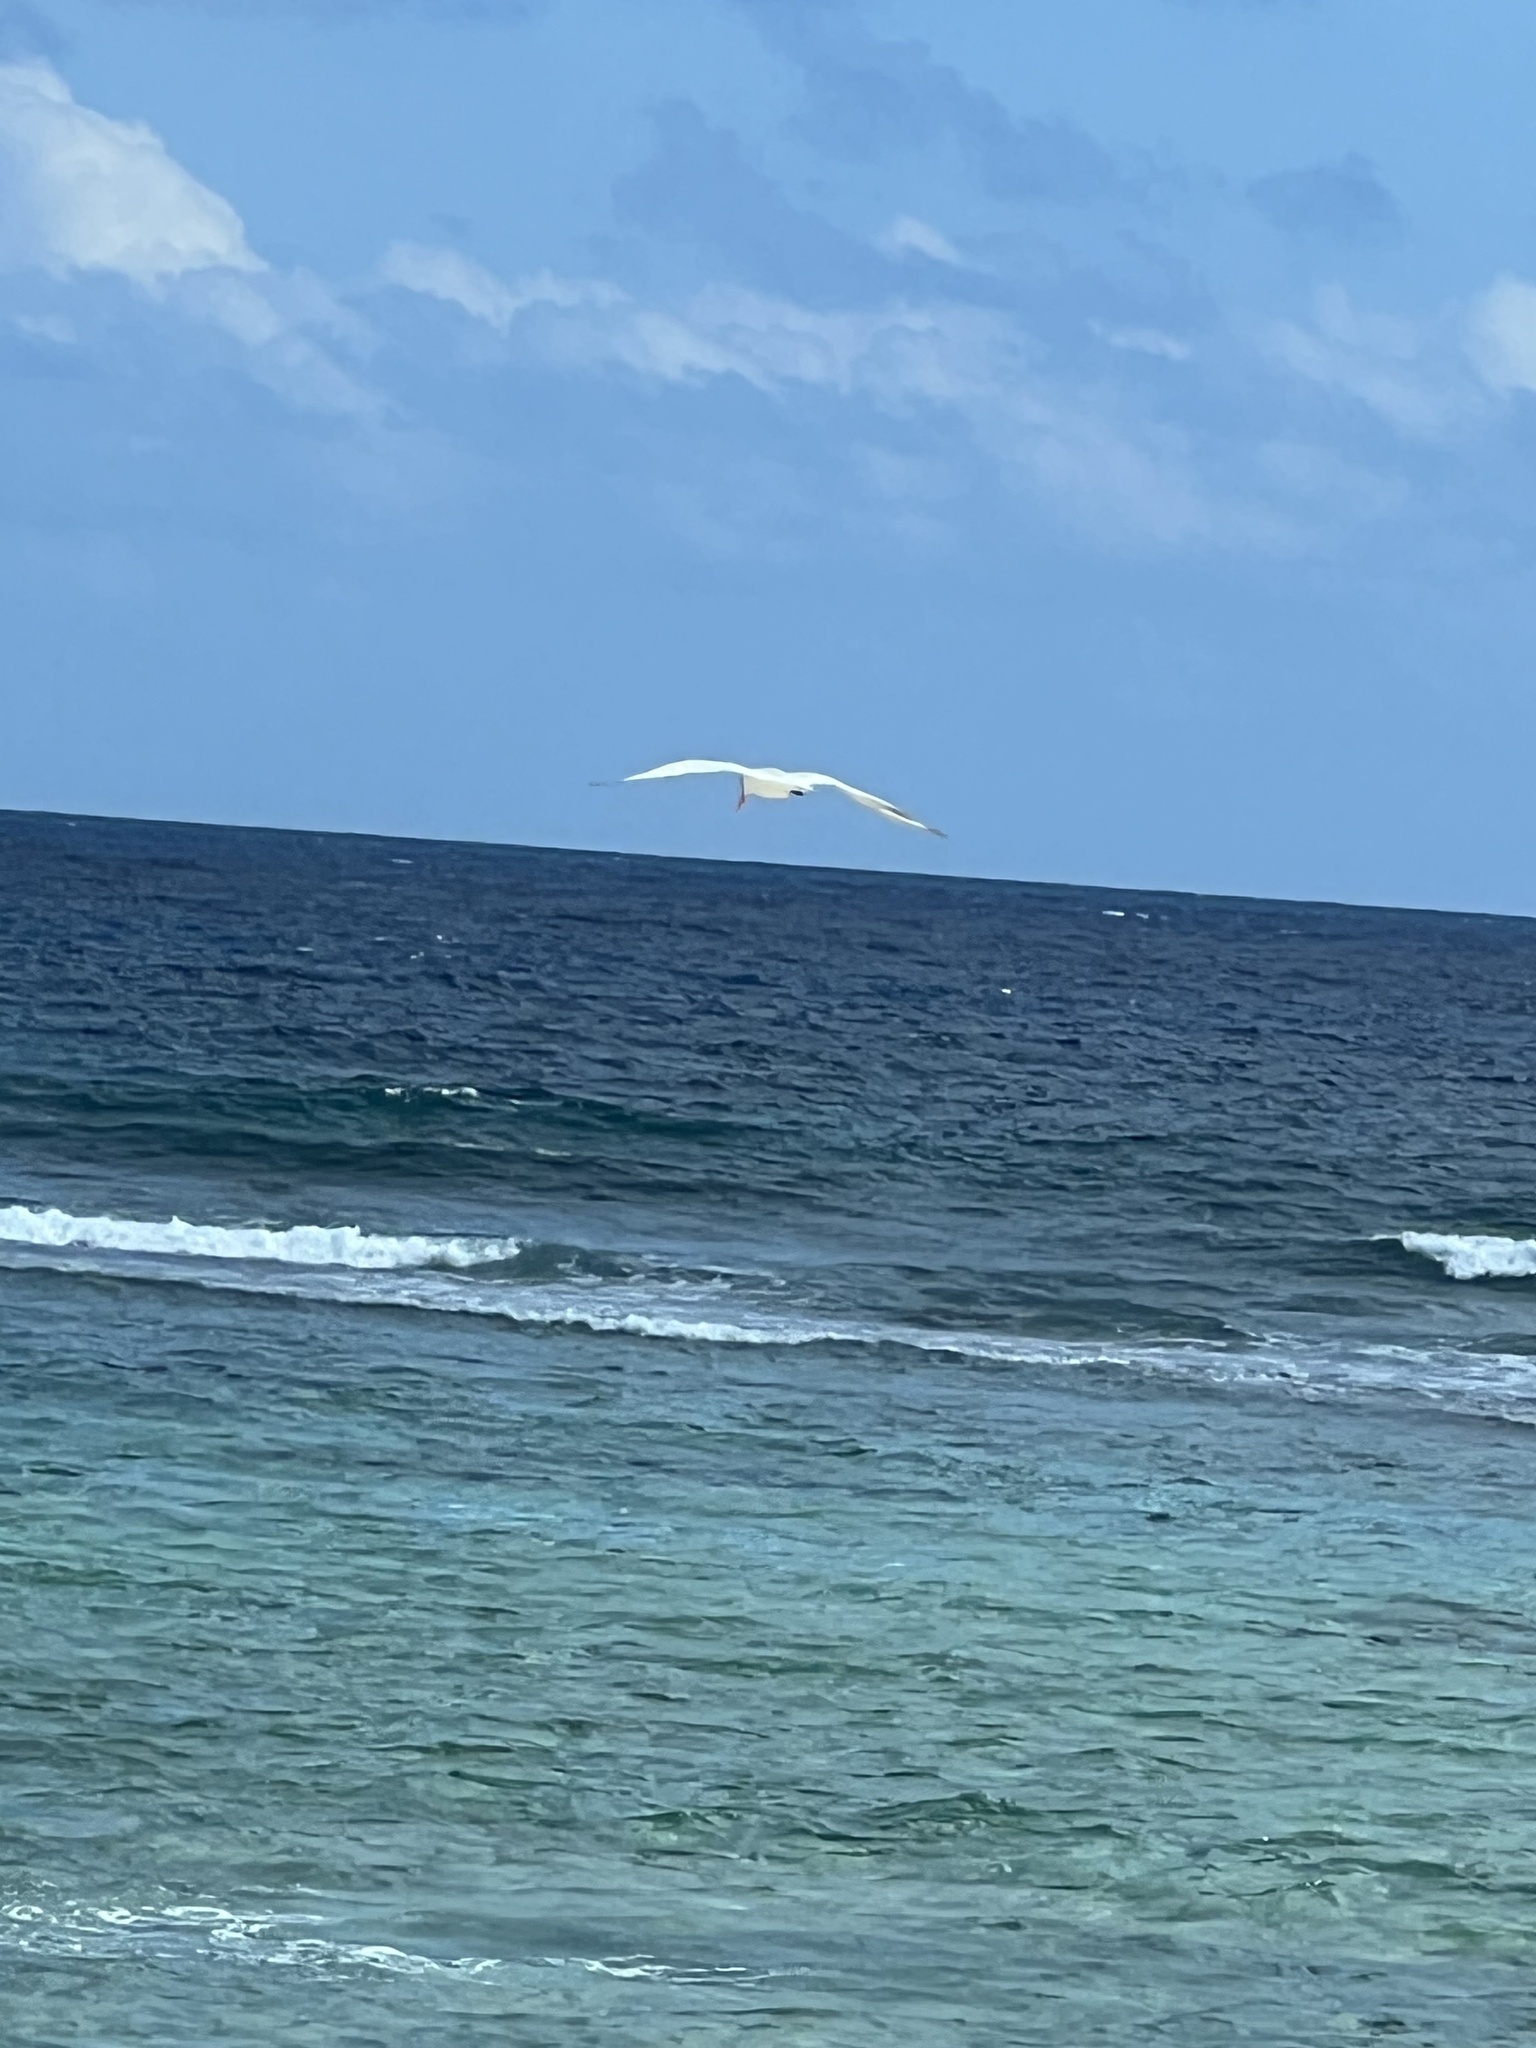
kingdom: Animalia
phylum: Chordata
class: Aves
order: Charadriiformes
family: Laridae
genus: Thalasseus
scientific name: Thalasseus maximus
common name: Royal tern
